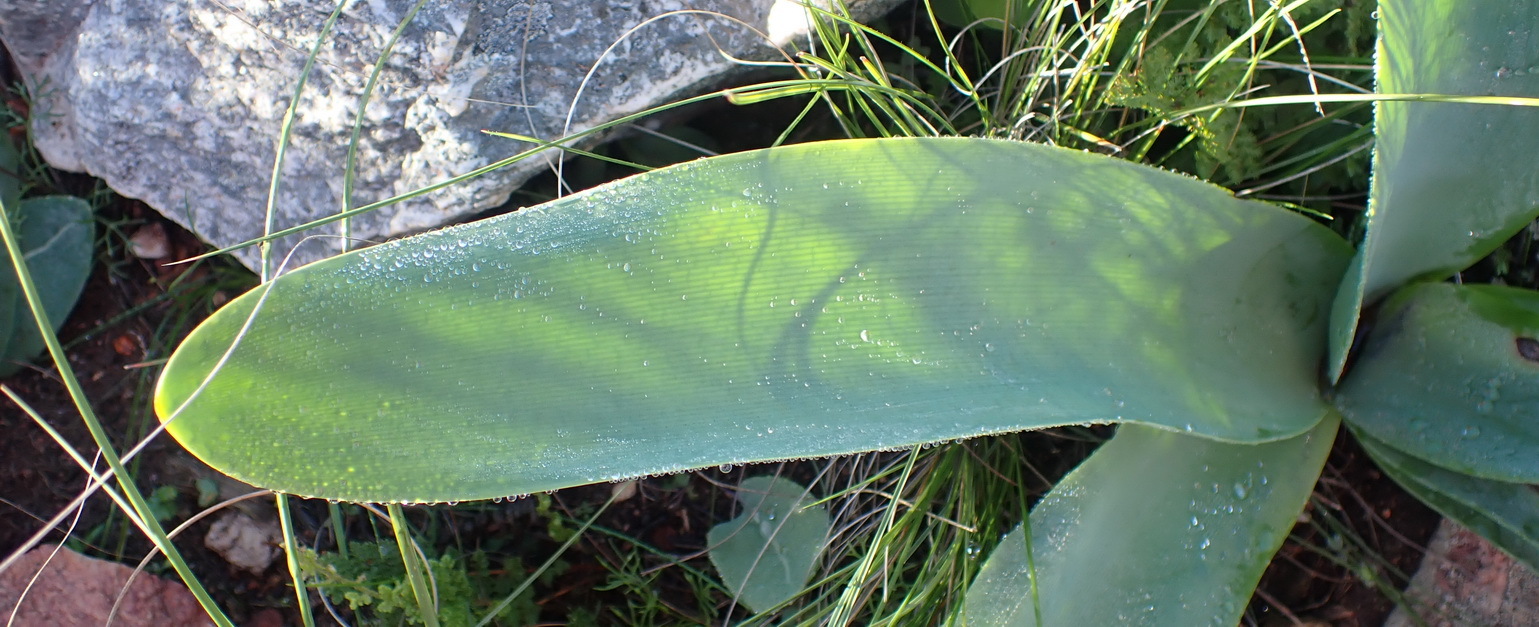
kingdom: Plantae
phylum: Tracheophyta
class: Liliopsida
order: Asparagales
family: Amaryllidaceae
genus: Brunsvigia
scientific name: Brunsvigia josephinae
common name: Josephine's-lily
